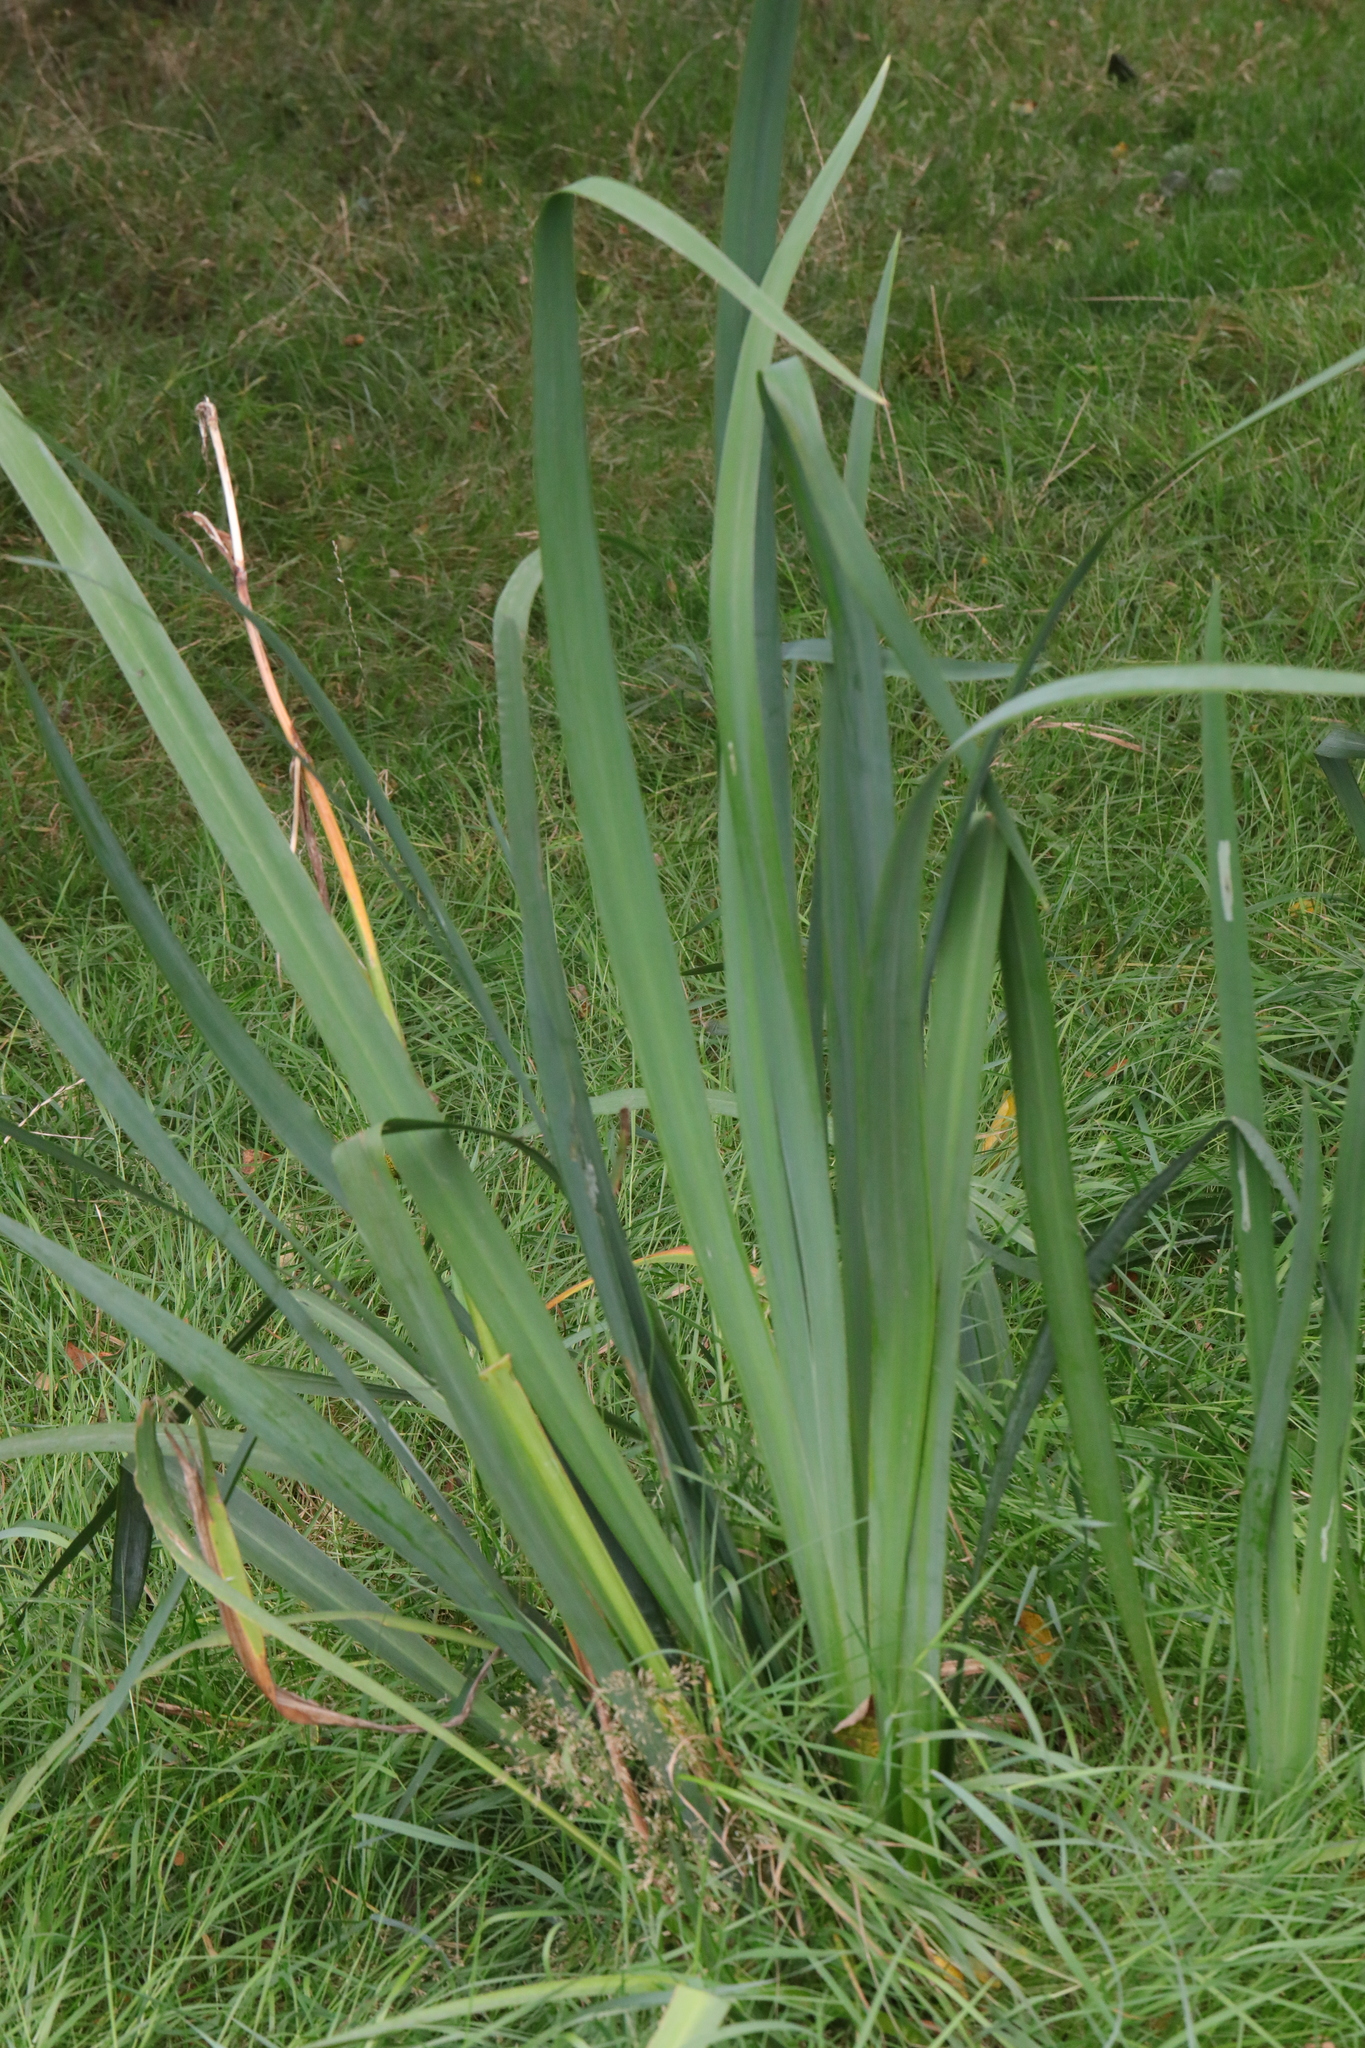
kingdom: Plantae
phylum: Tracheophyta
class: Liliopsida
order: Asparagales
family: Iridaceae
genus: Iris
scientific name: Iris pseudacorus
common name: Yellow flag
